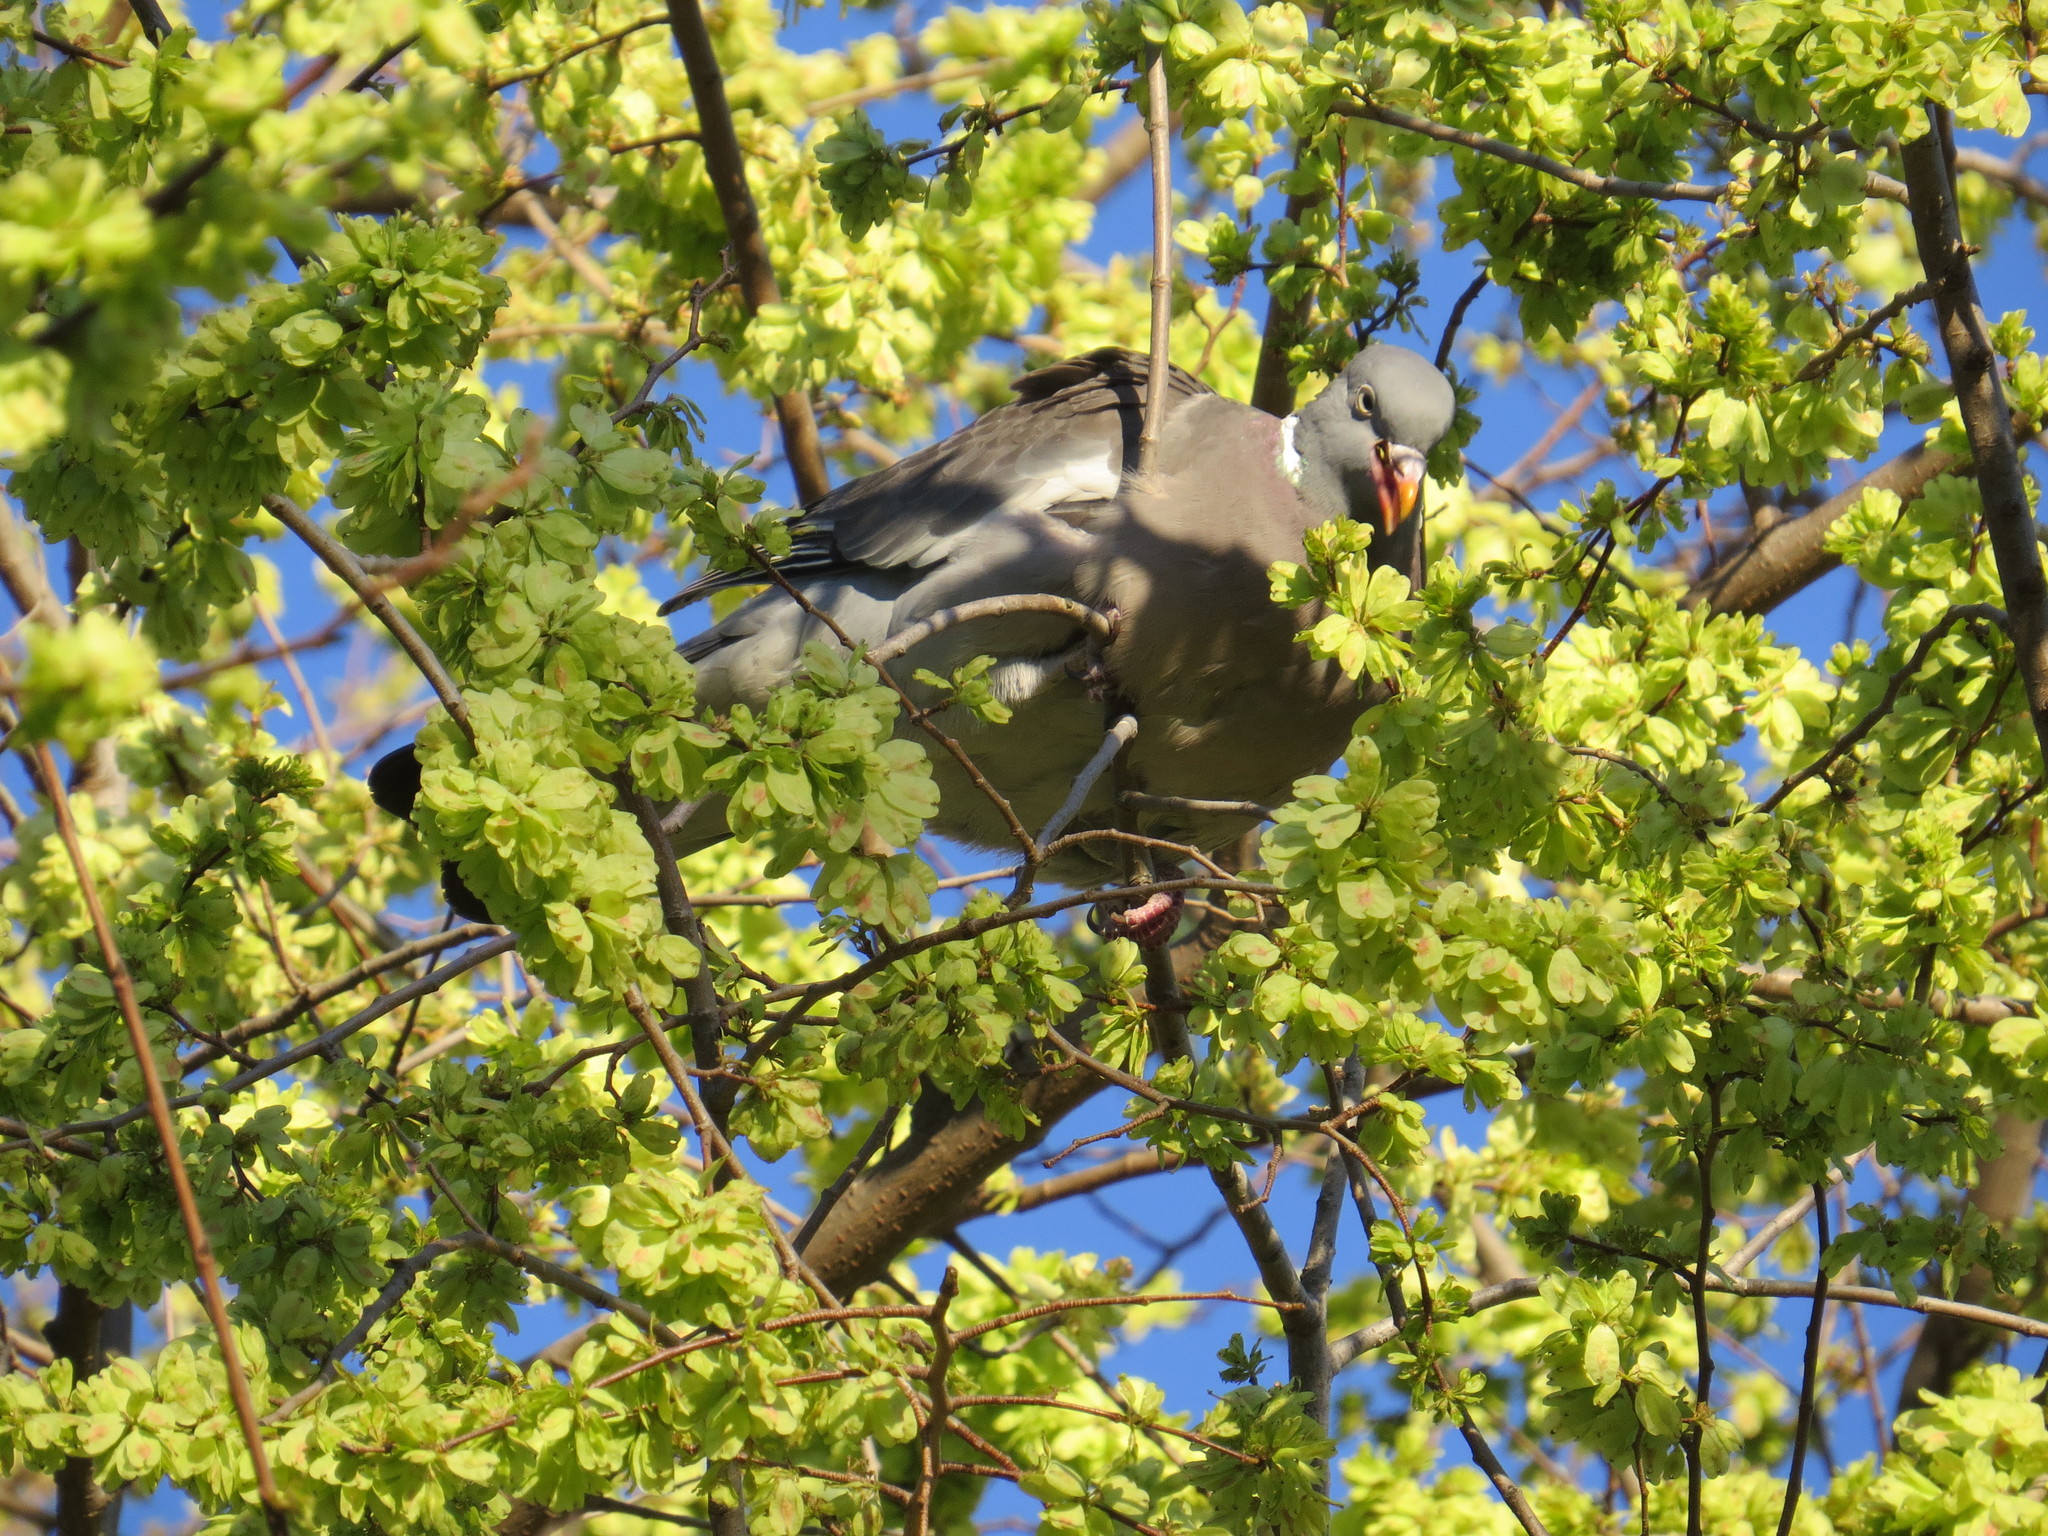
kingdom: Animalia
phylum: Chordata
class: Aves
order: Columbiformes
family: Columbidae
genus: Columba
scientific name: Columba palumbus
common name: Common wood pigeon
